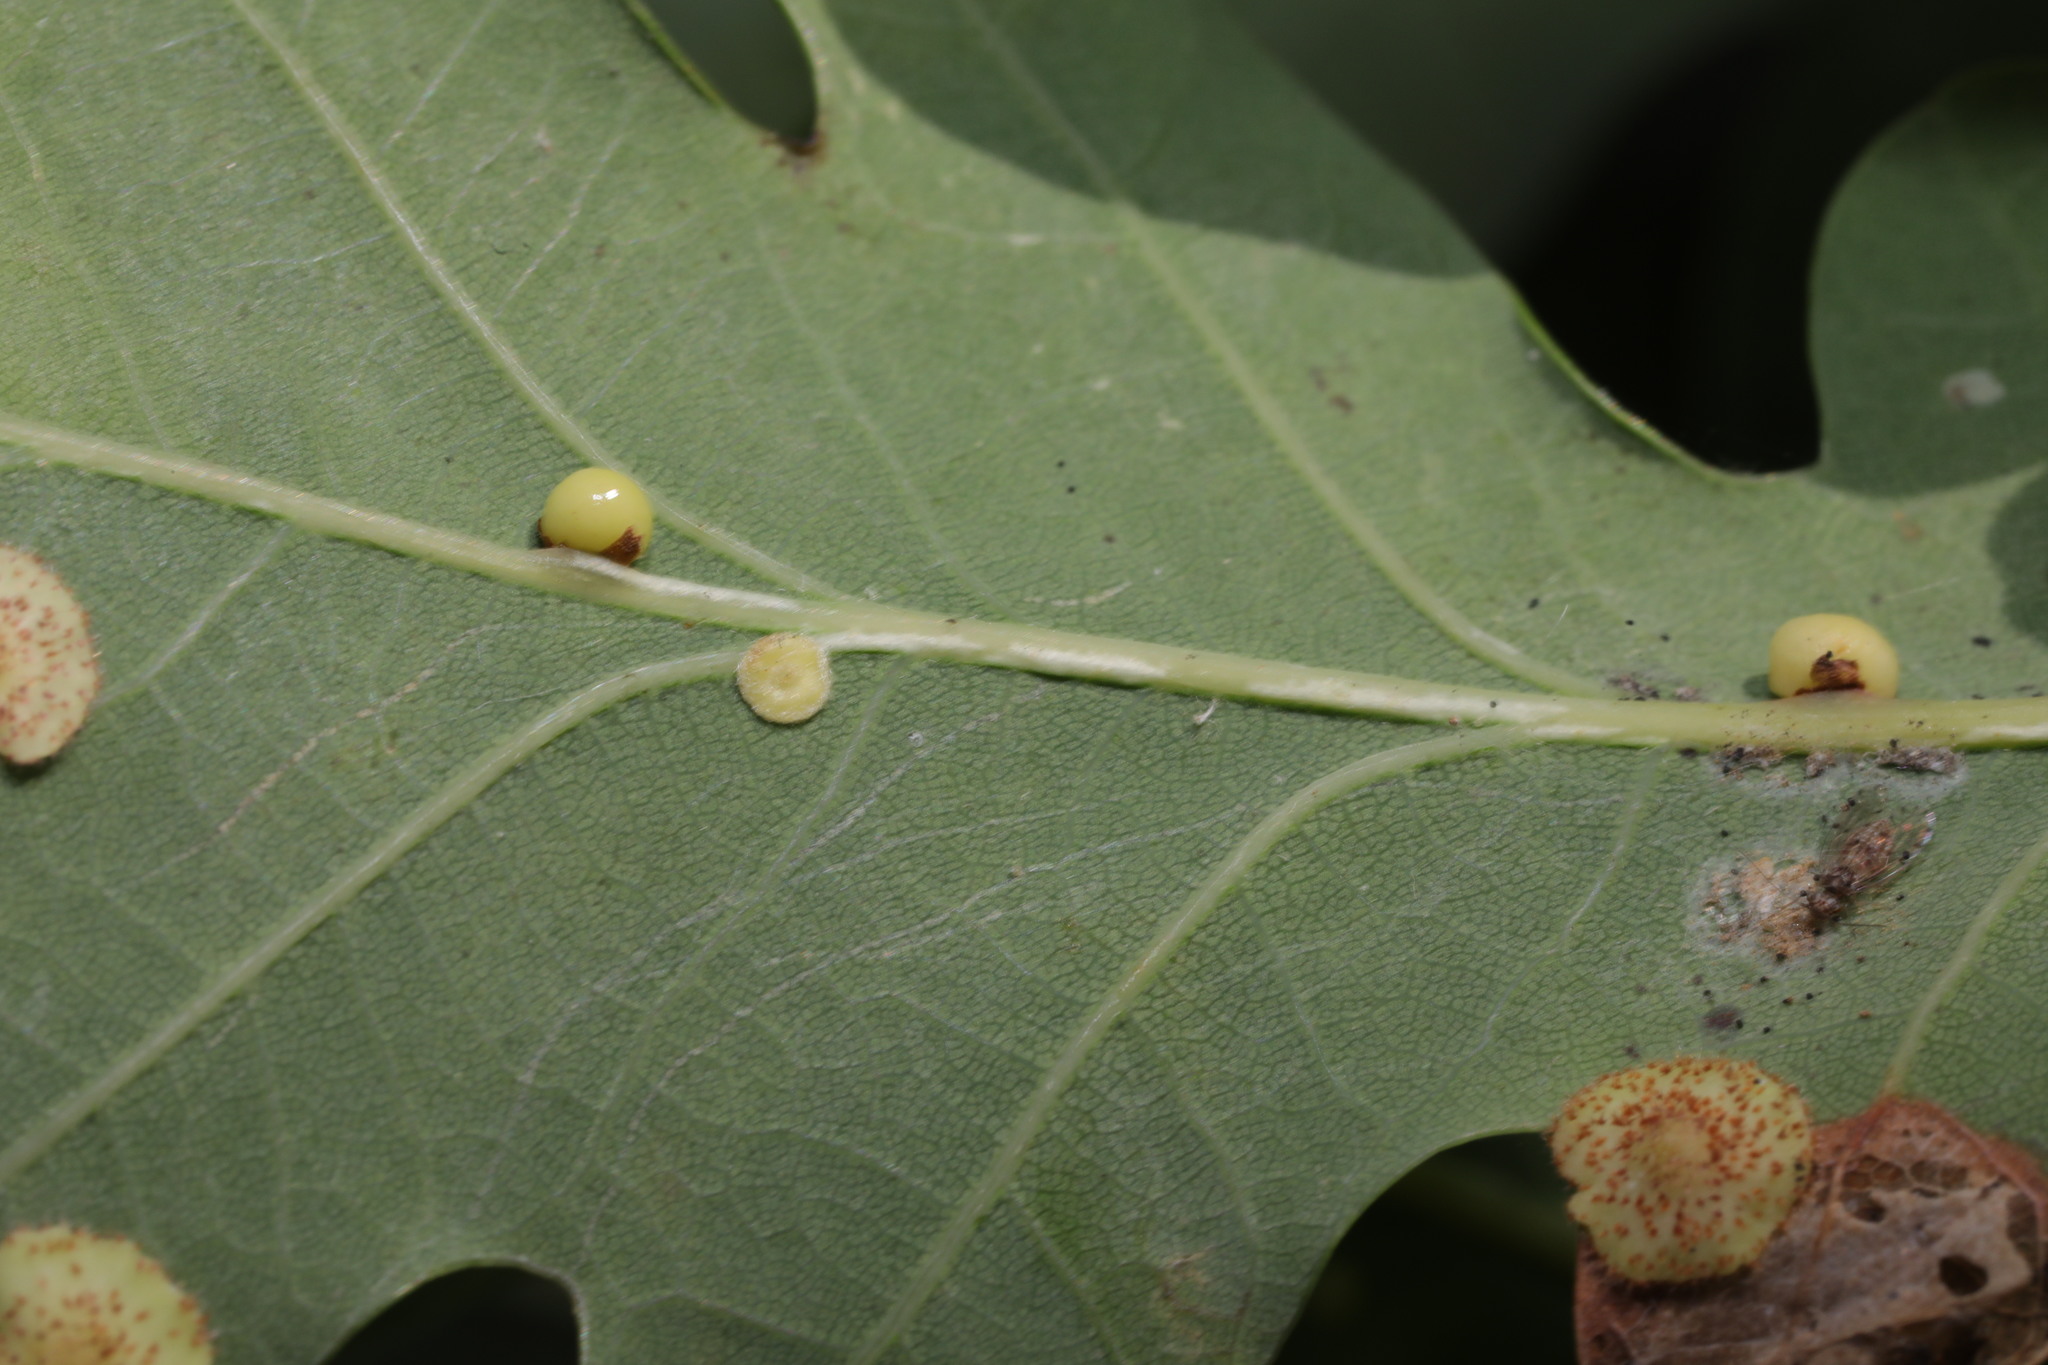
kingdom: Animalia
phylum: Arthropoda
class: Insecta
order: Hymenoptera
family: Cynipidae
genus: Neuroterus
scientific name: Neuroterus anthracinus
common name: Oyster gall
